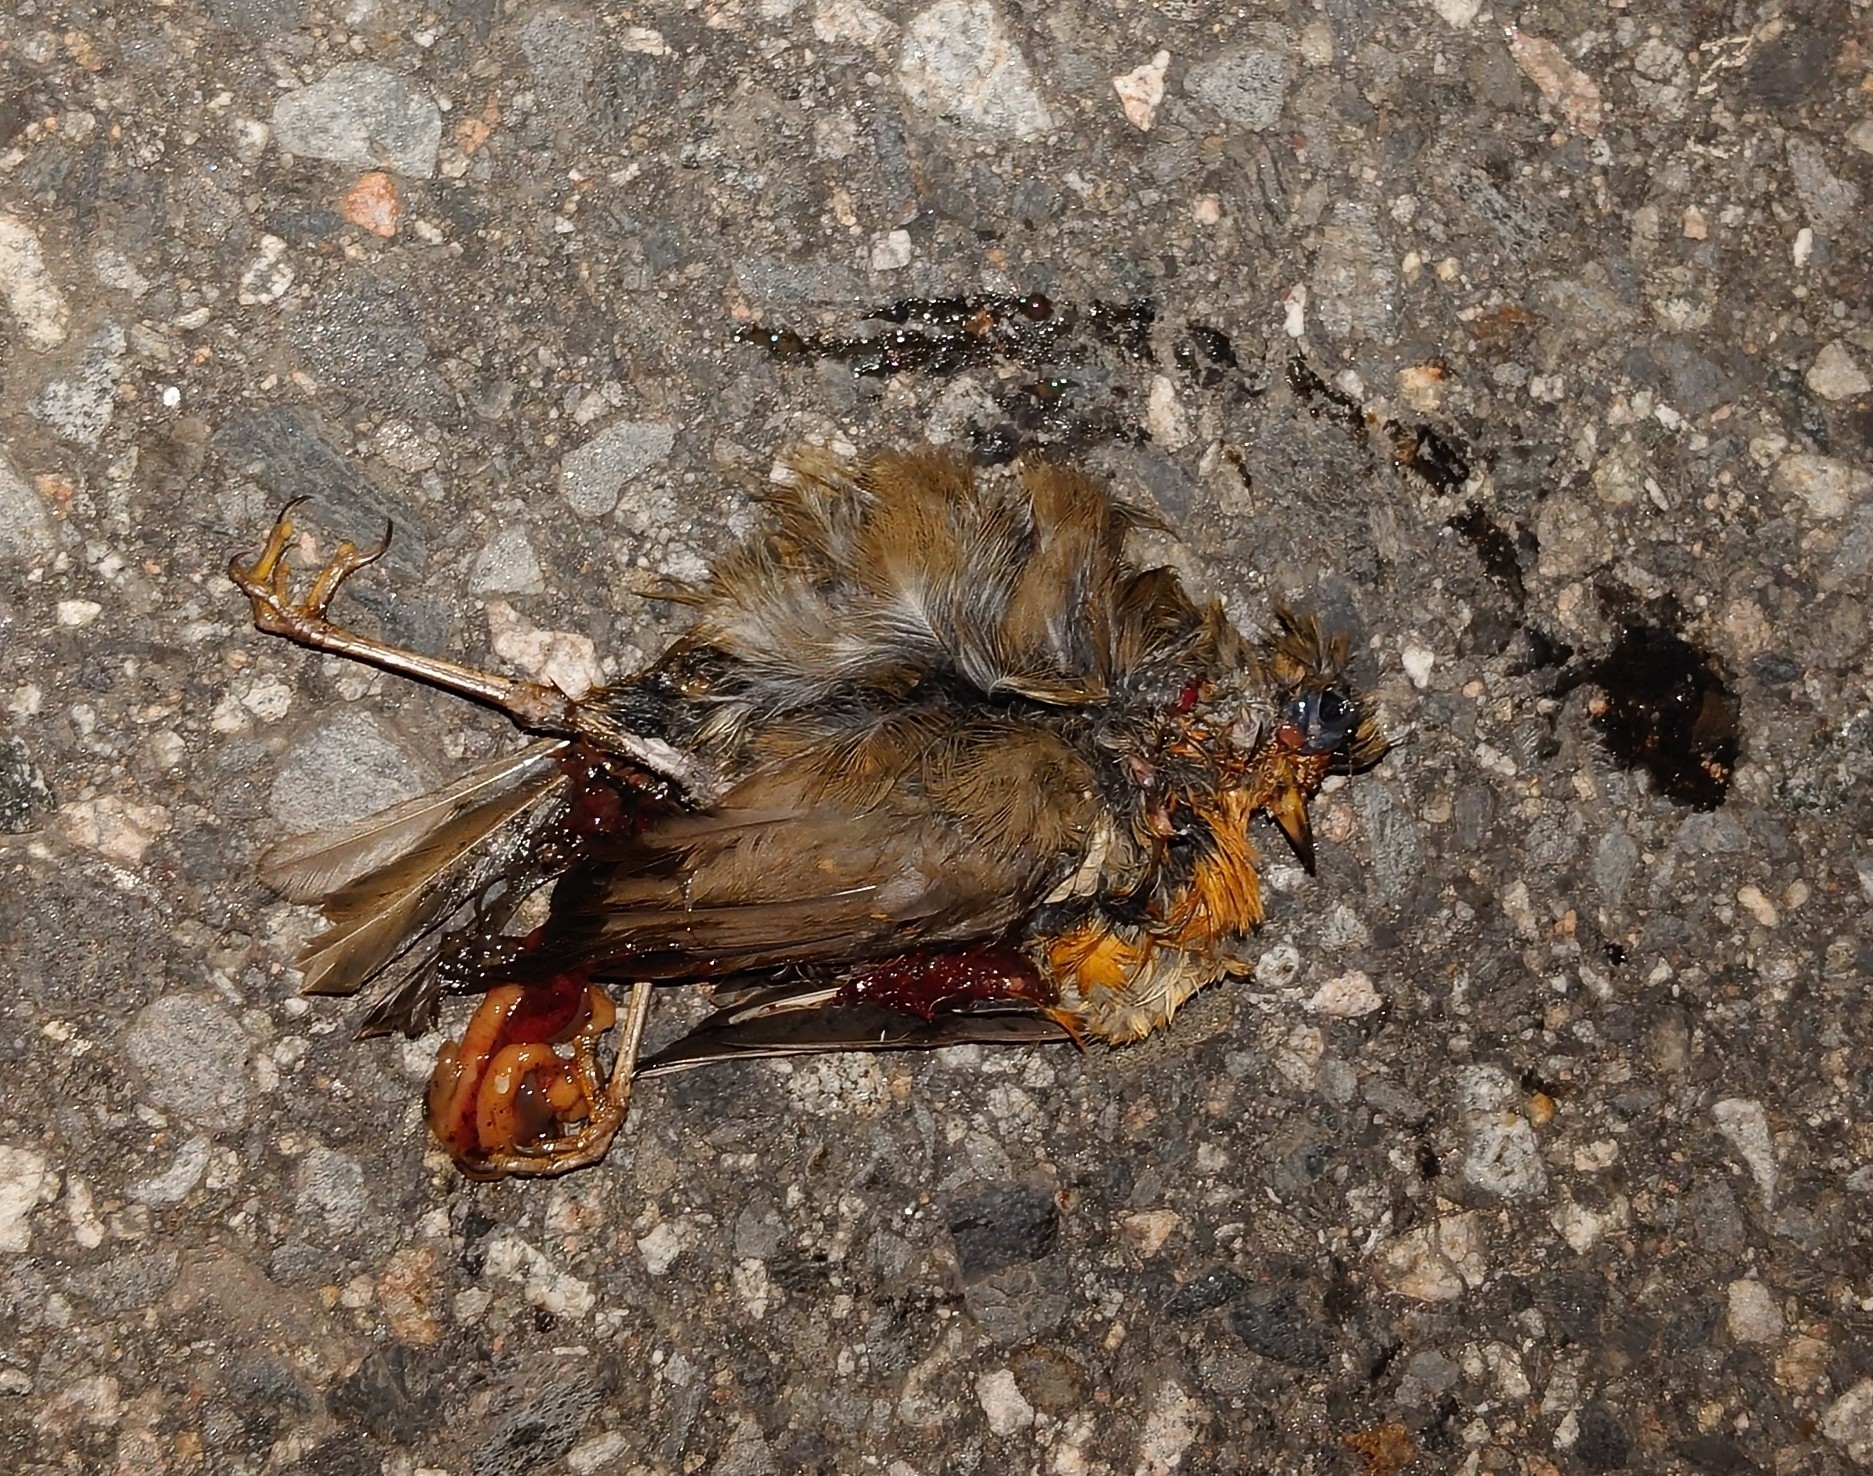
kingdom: Animalia
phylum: Chordata
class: Aves
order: Passeriformes
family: Muscicapidae
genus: Erithacus
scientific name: Erithacus rubecula
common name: European robin
